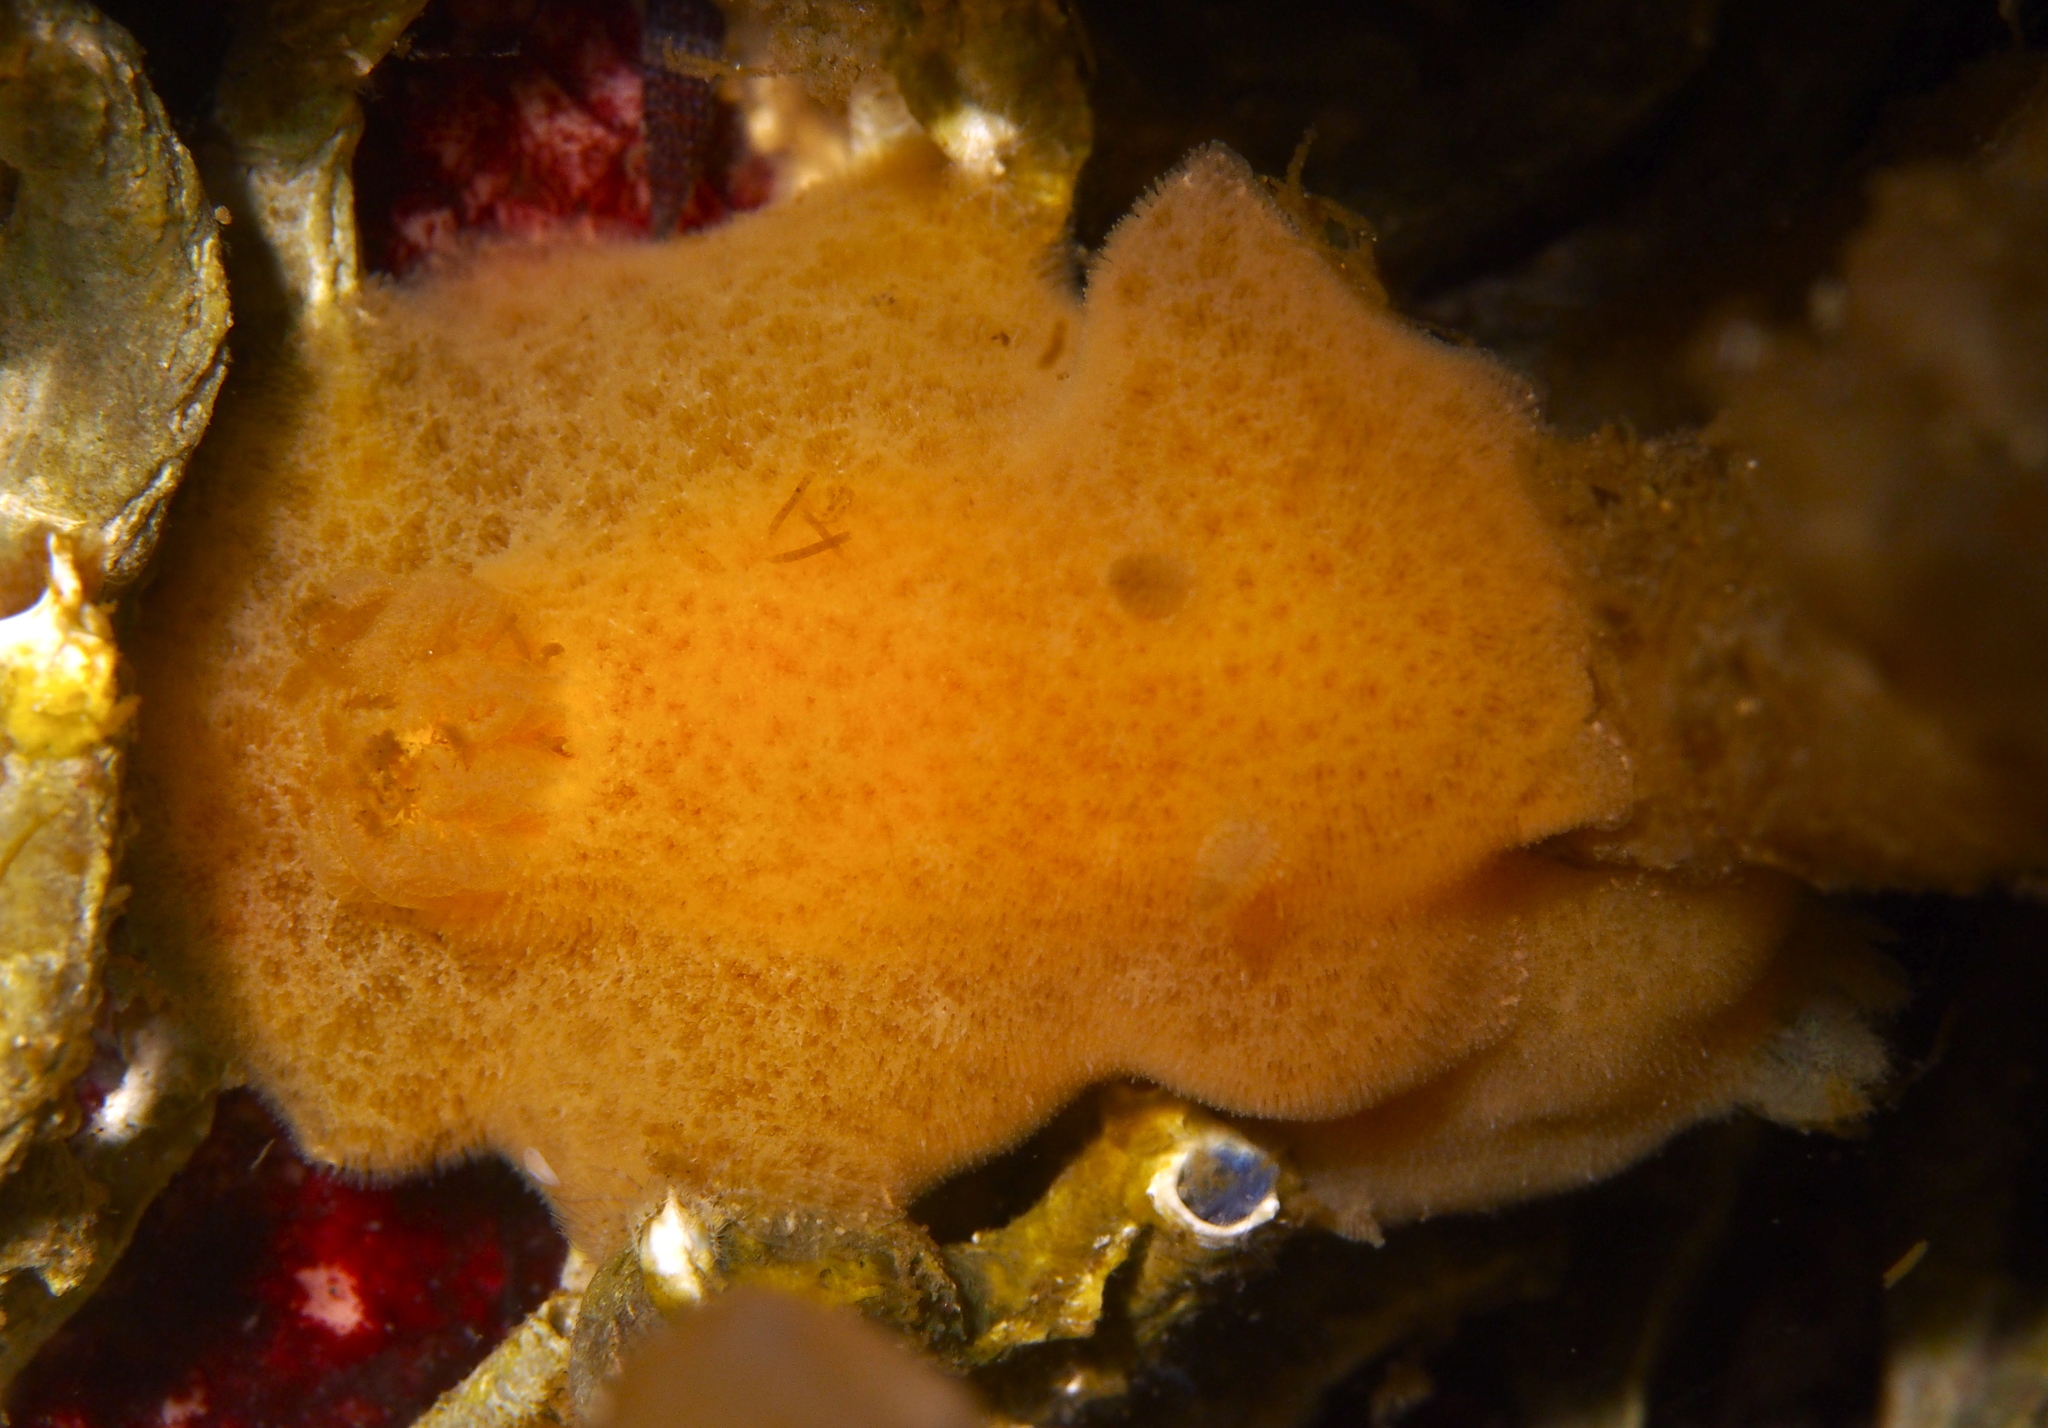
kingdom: Animalia
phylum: Mollusca
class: Gastropoda
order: Nudibranchia
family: Discodorididae
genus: Jorunna
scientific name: Jorunna tomentosa
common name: Grey sea slug
